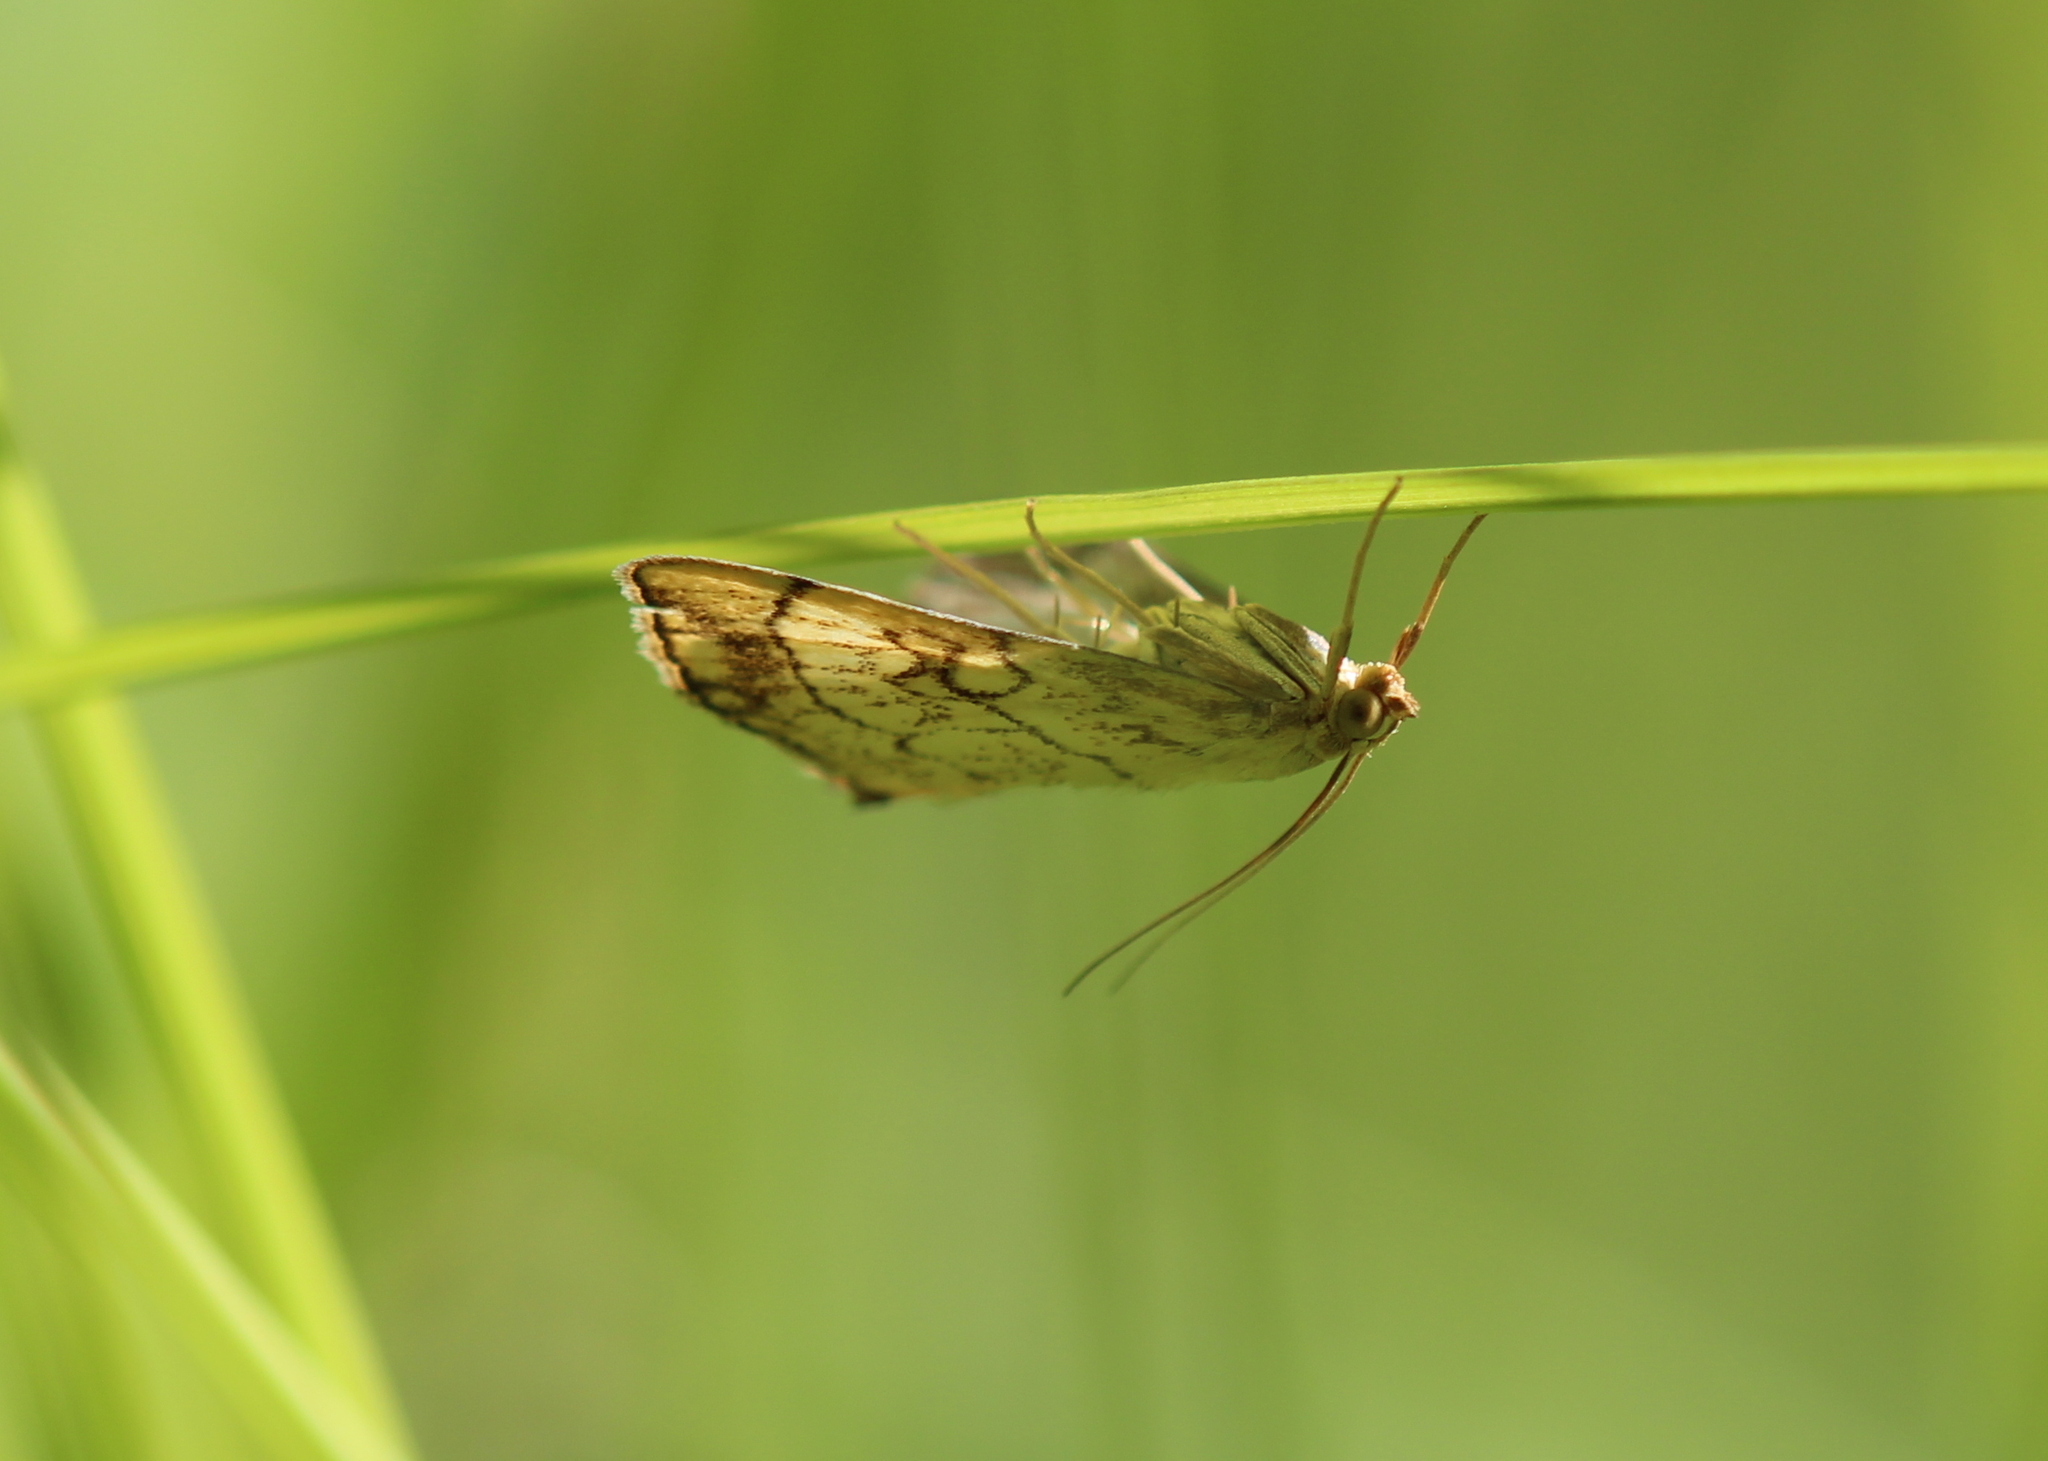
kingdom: Animalia
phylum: Arthropoda
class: Insecta
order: Lepidoptera
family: Crambidae
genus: Evergestis
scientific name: Evergestis pallidata
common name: Chequered pearl
